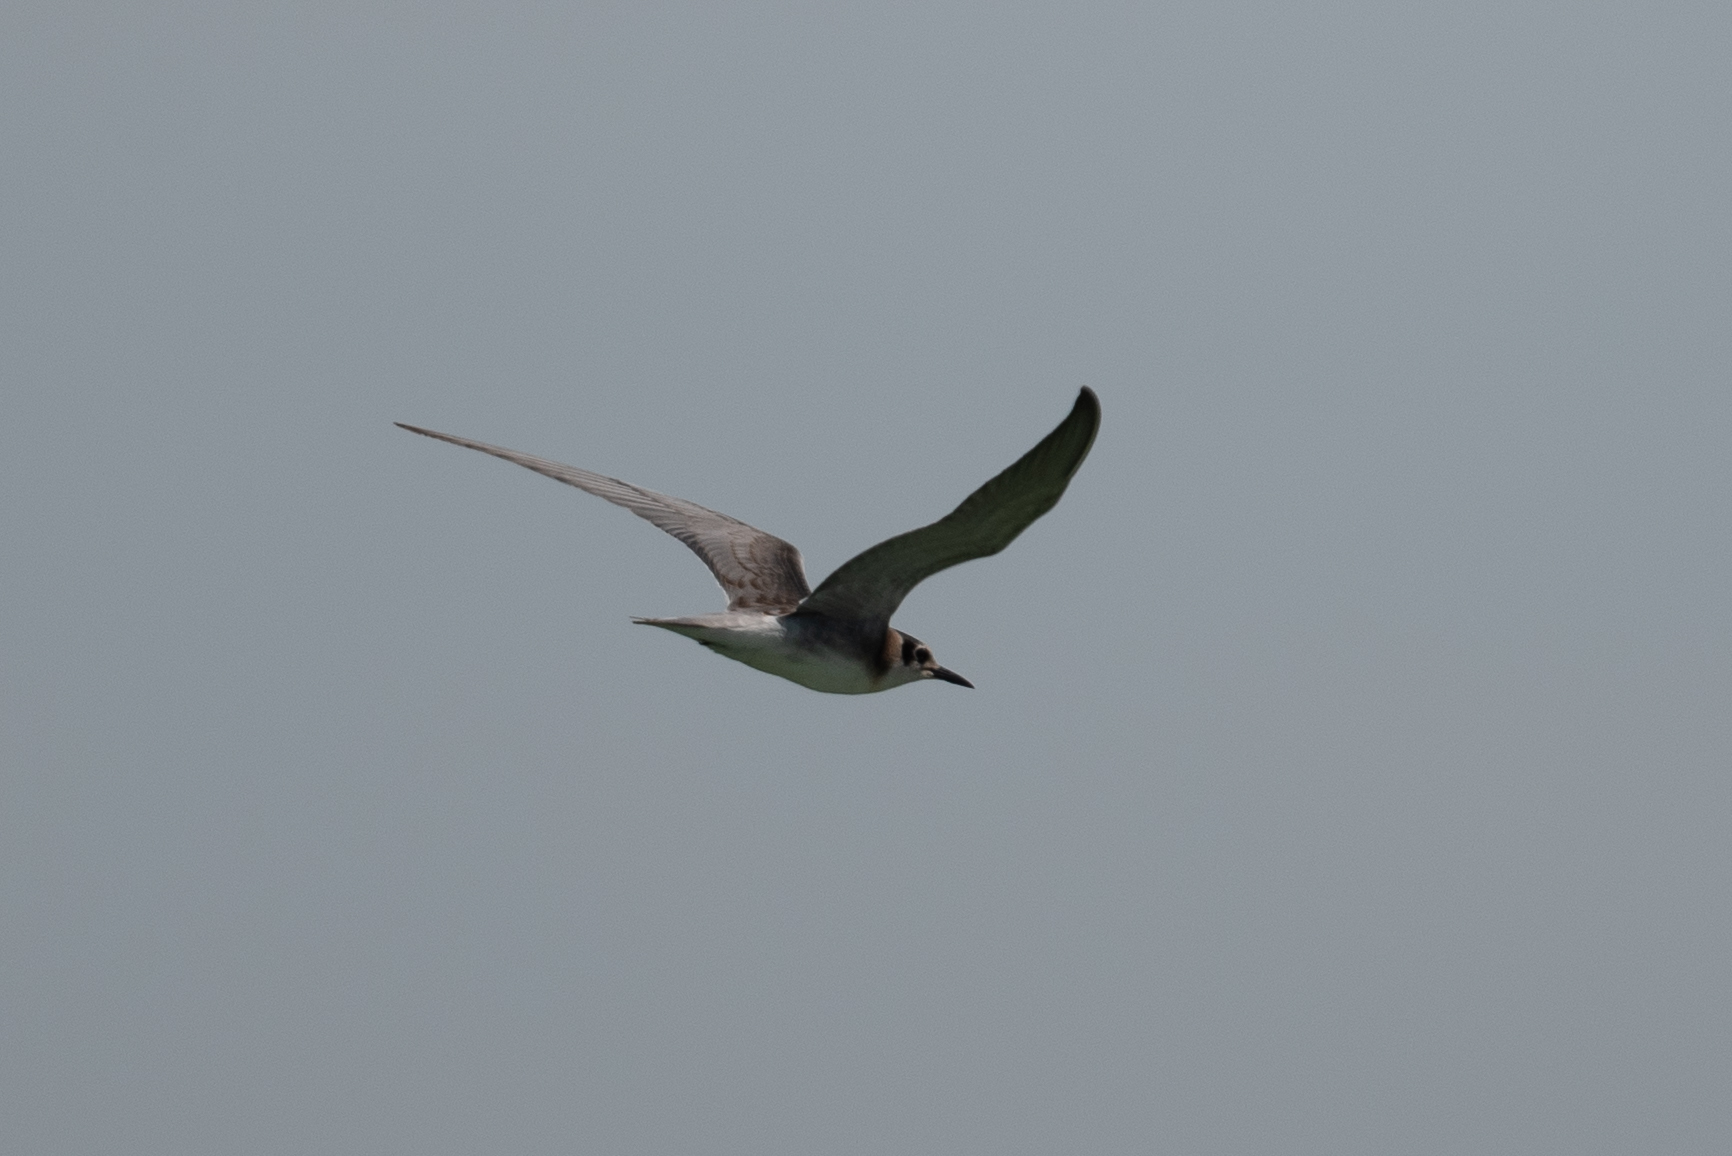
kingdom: Animalia
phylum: Chordata
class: Aves
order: Charadriiformes
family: Laridae
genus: Chlidonias
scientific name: Chlidonias niger
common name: Black tern
